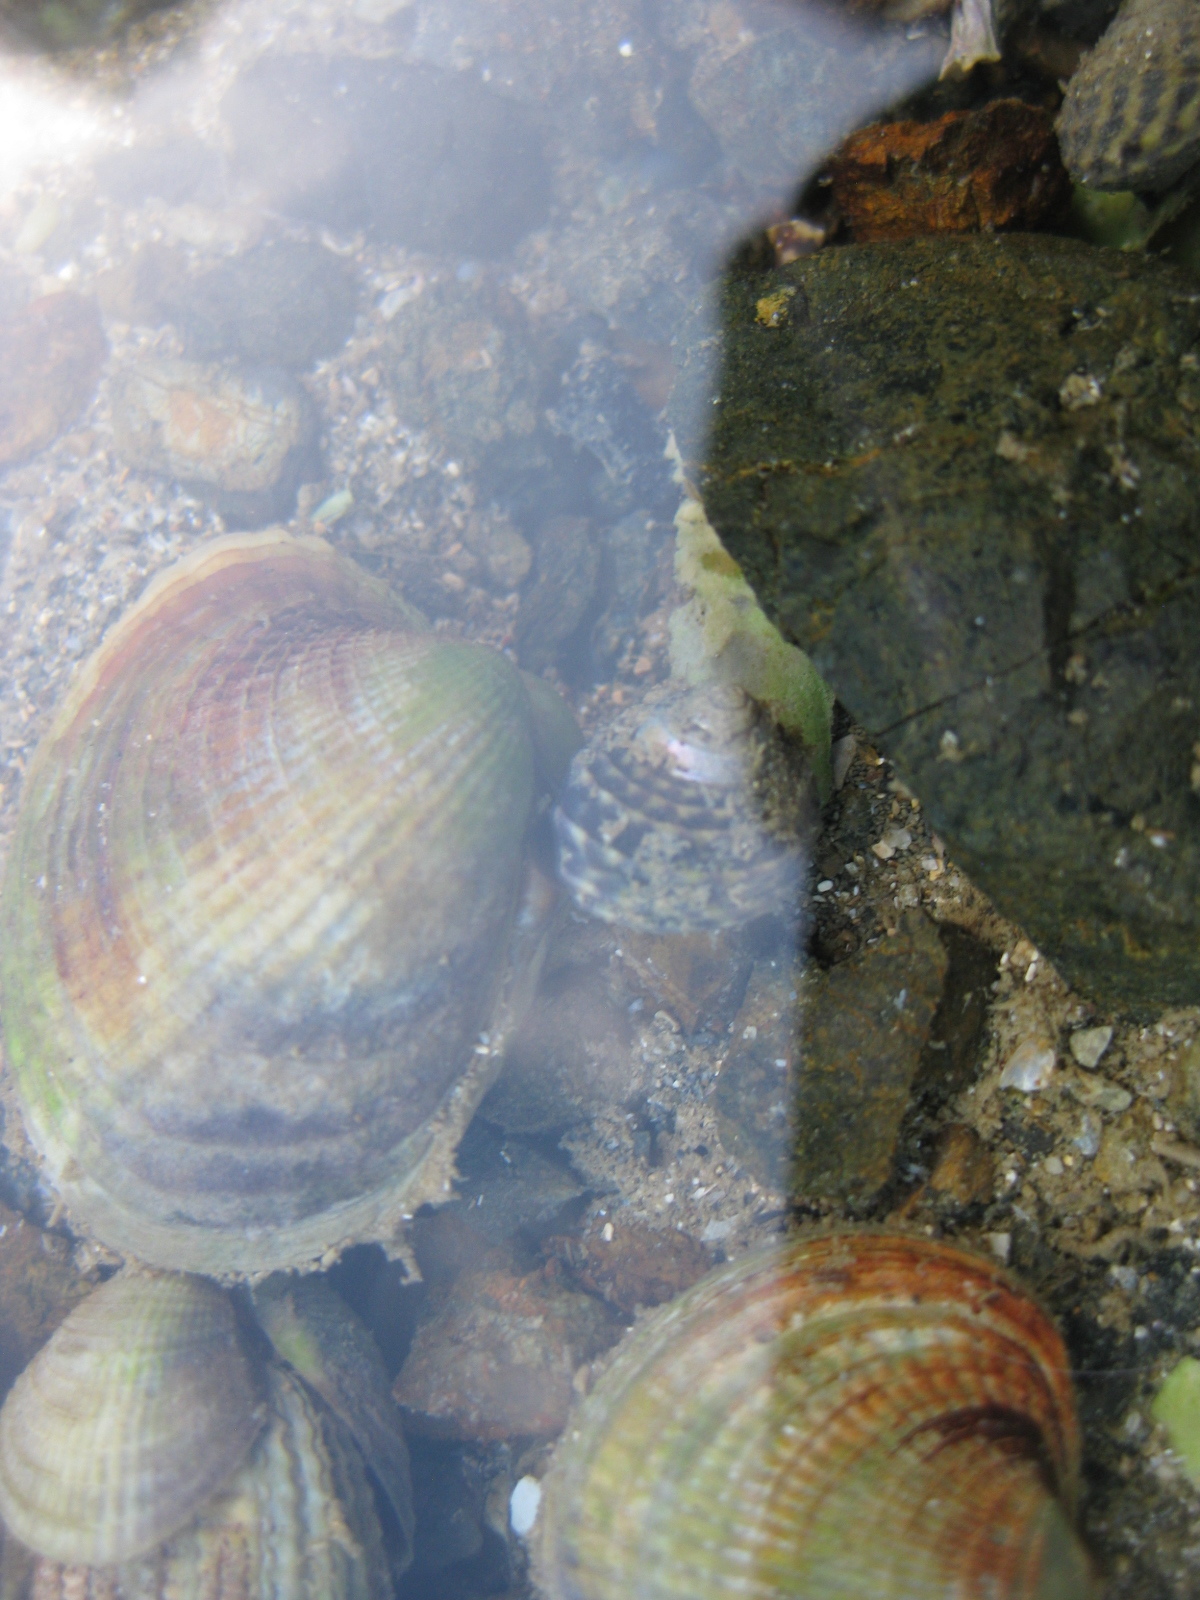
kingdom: Animalia
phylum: Mollusca
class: Gastropoda
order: Trochida
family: Trochidae
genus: Diloma
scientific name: Diloma subrostratum
